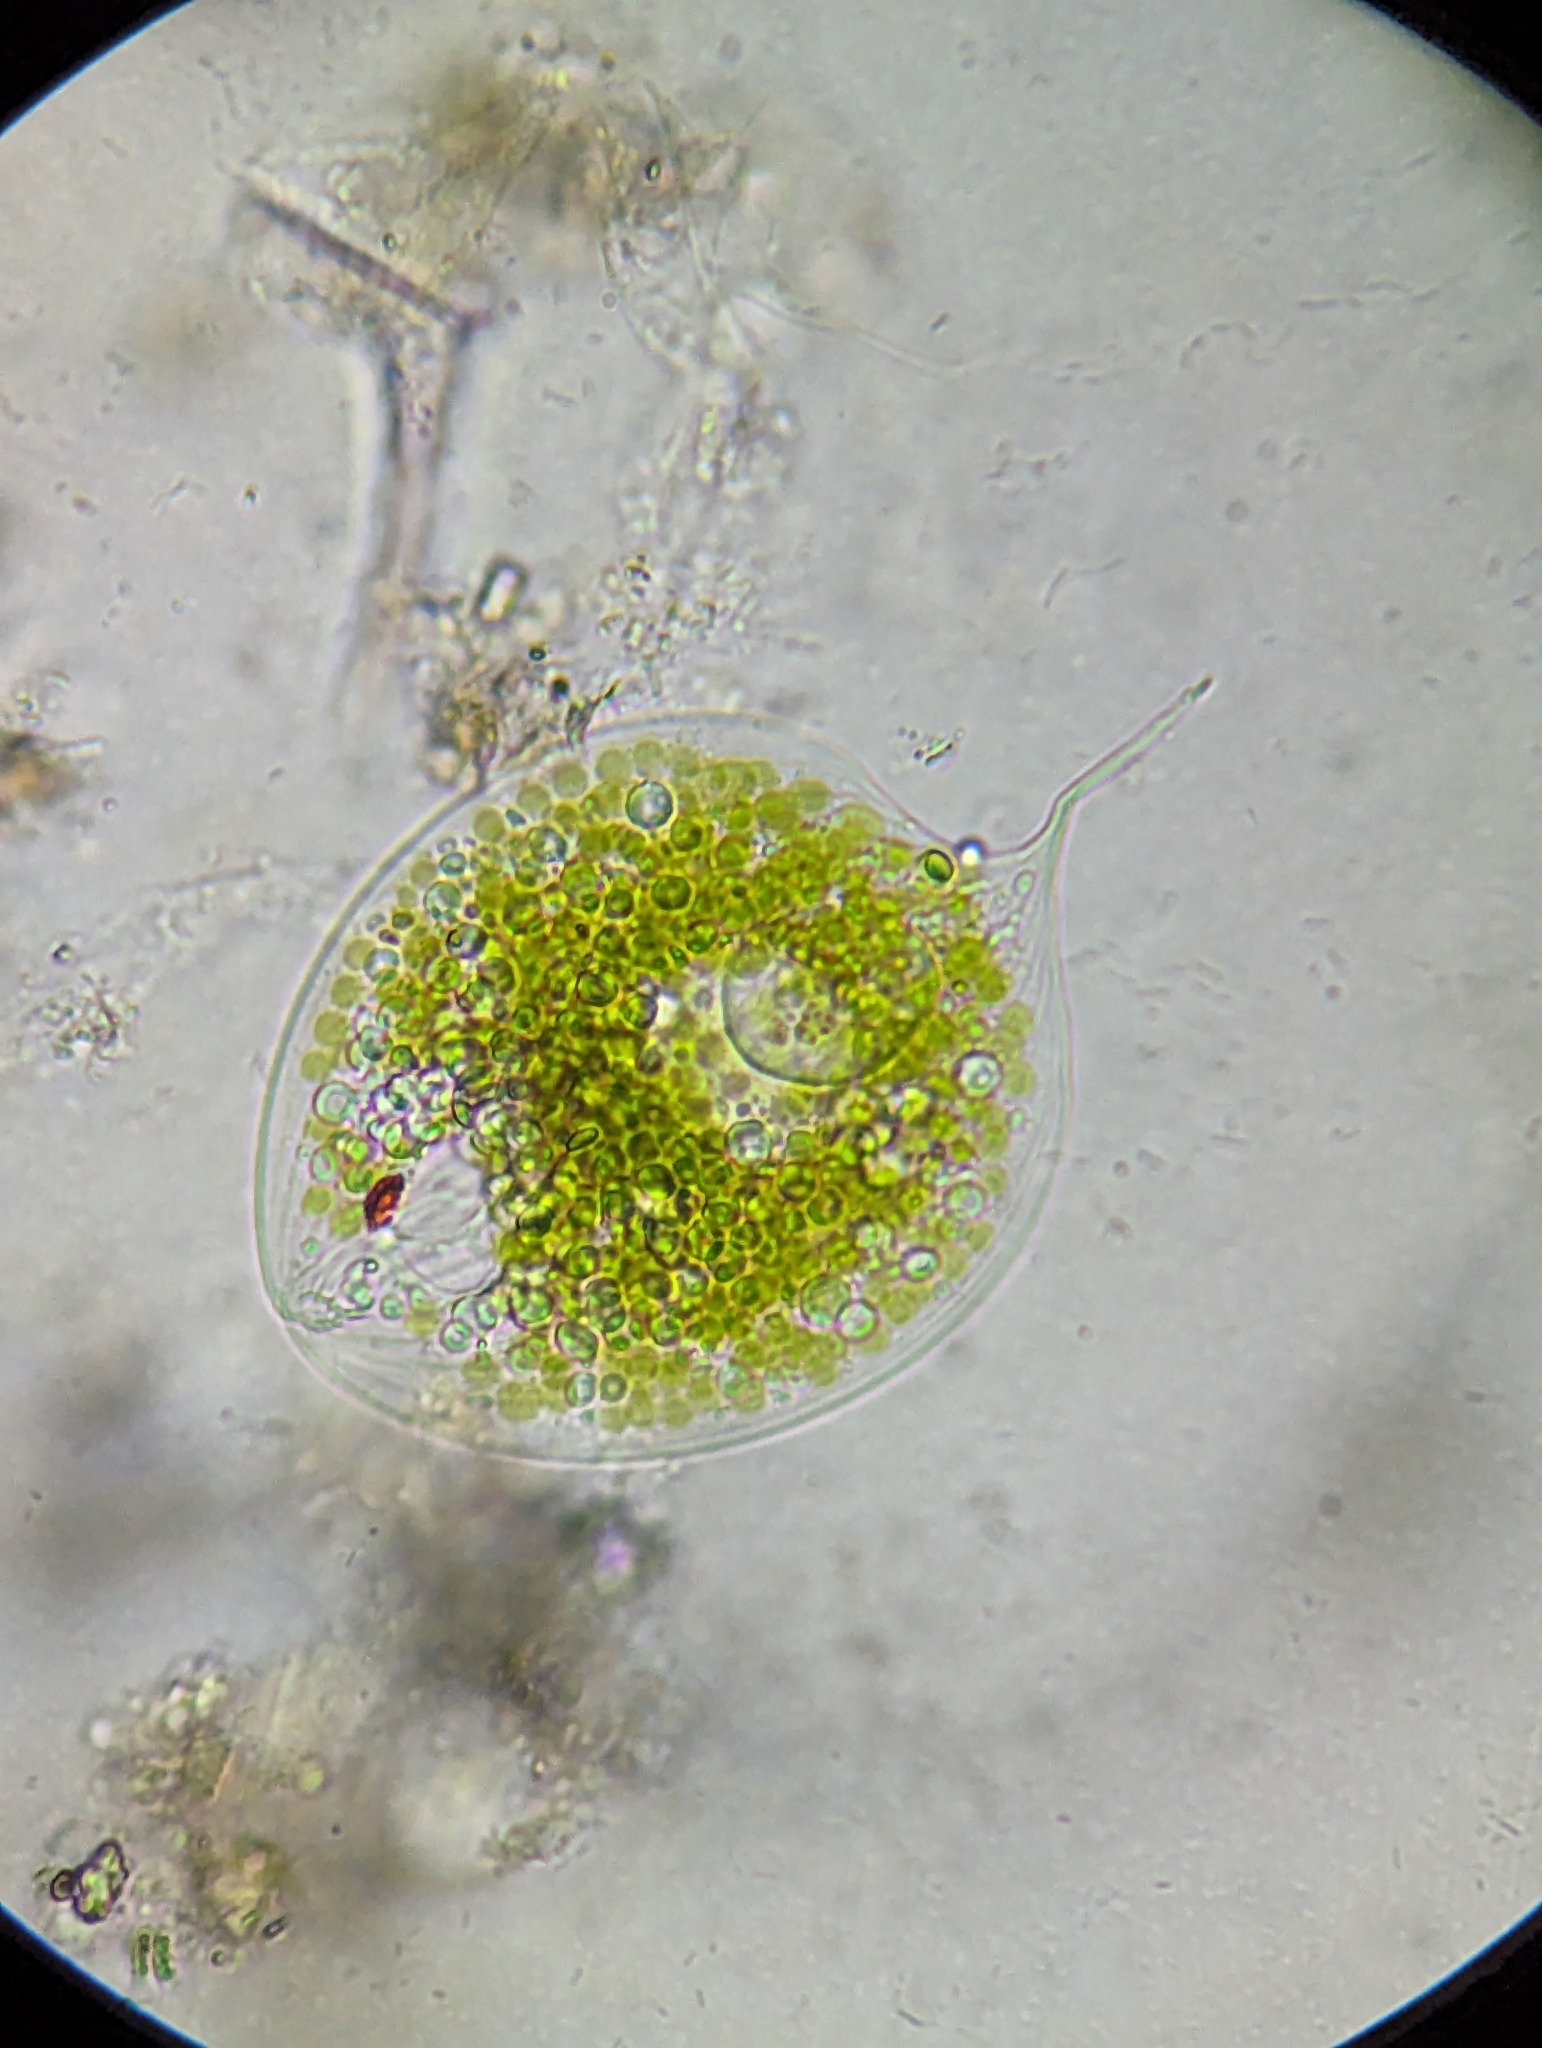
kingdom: Protozoa
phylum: Euglenozoa
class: Euglenoidea
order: Euglenida
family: Phacidae
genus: Phacus
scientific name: Phacus gigas
